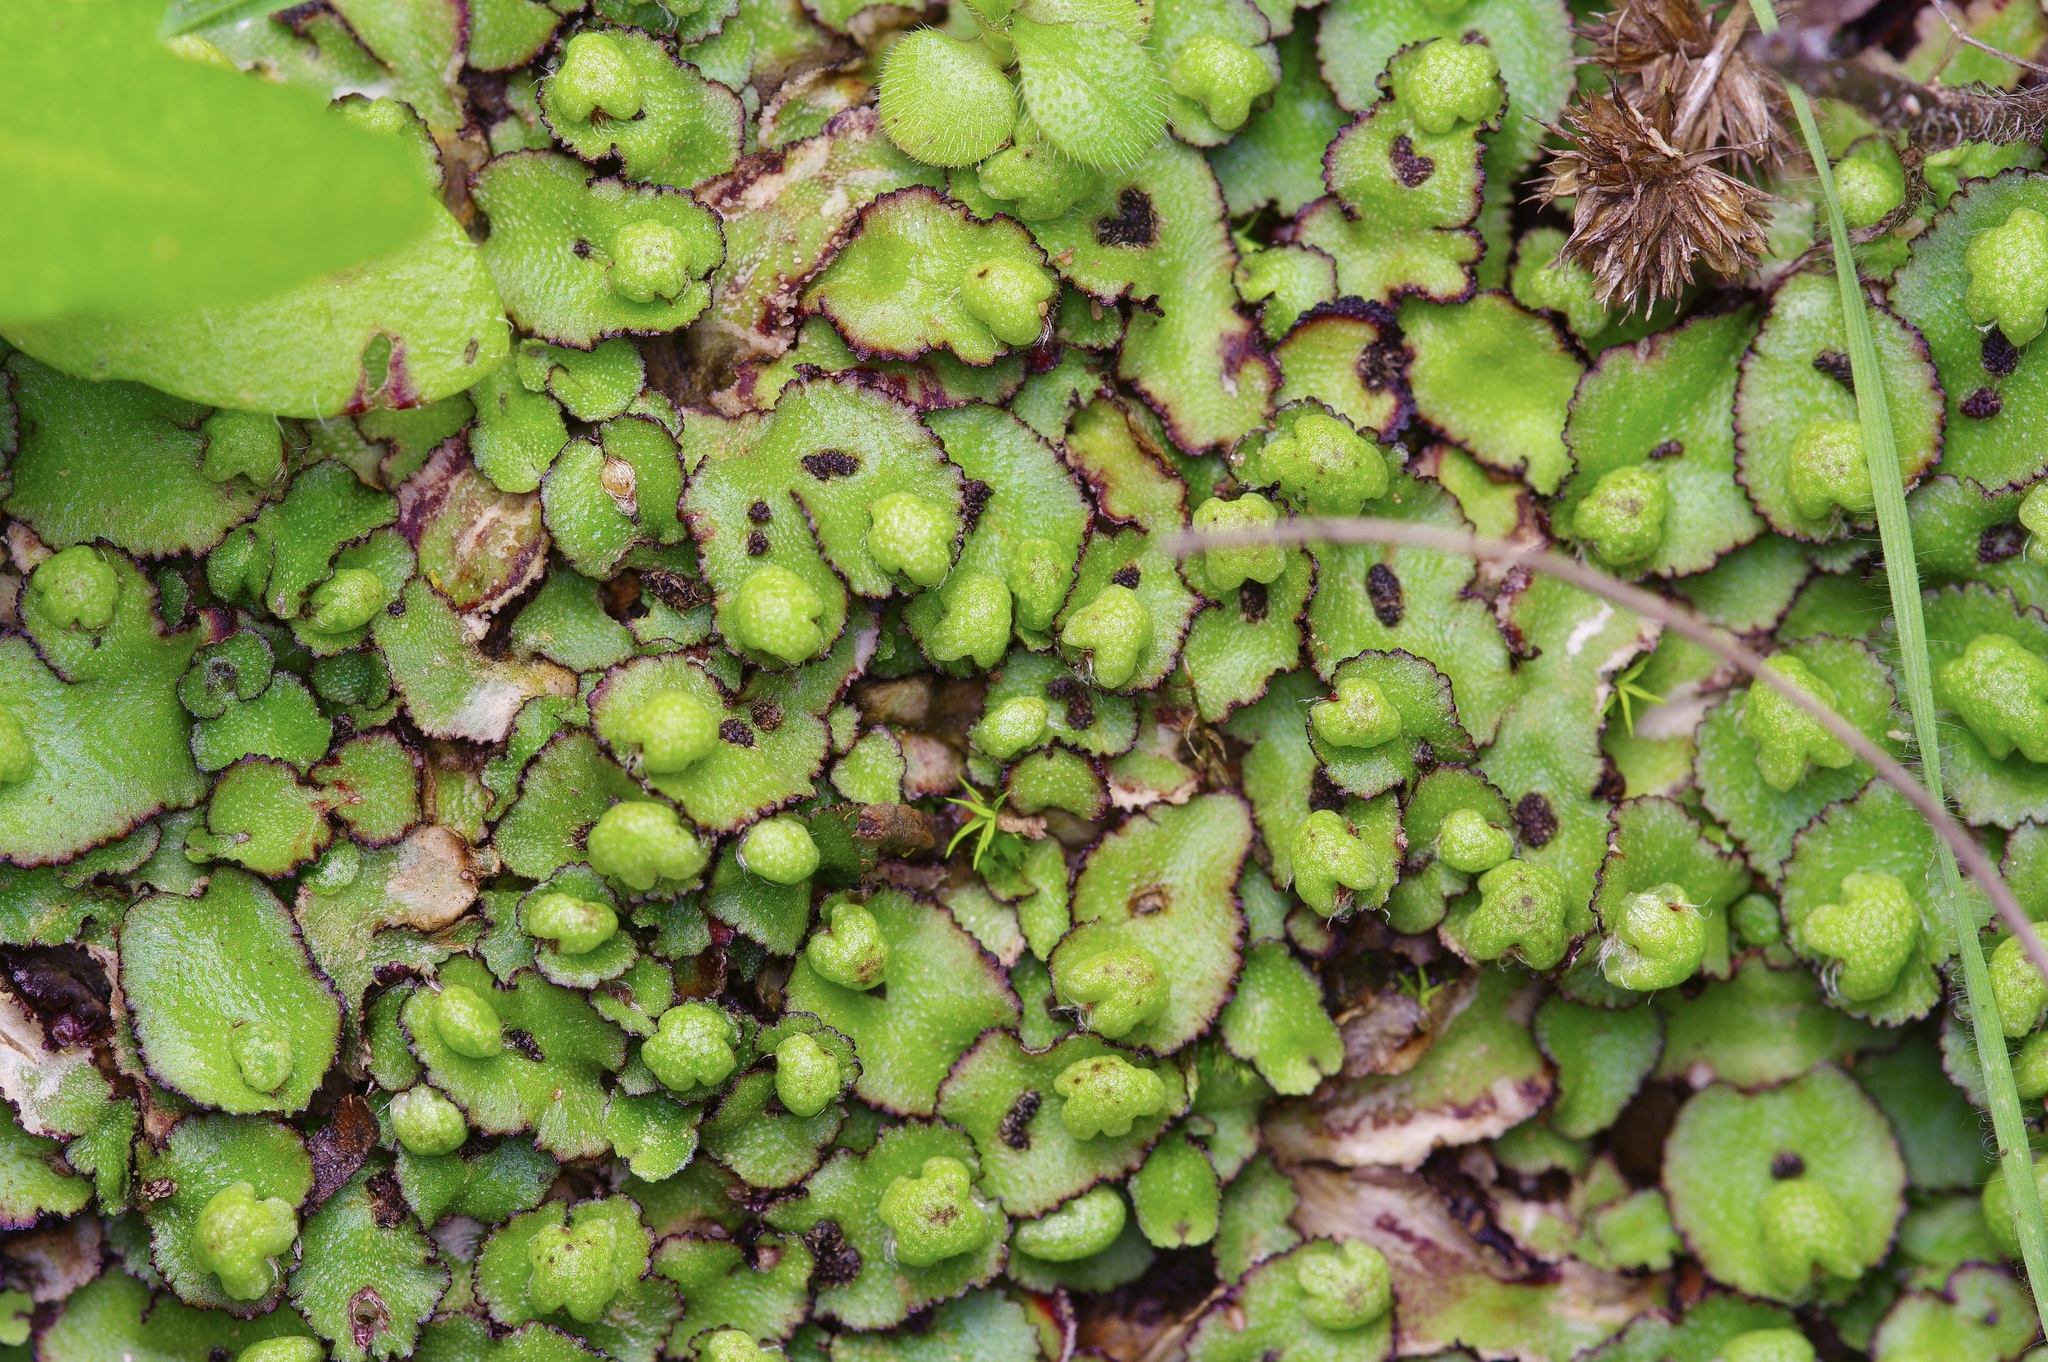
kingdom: Plantae
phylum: Marchantiophyta
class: Marchantiopsida
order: Marchantiales
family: Aytoniaceae
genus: Reboulia
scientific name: Reboulia hemisphaerica
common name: Purple-margined liverwort
